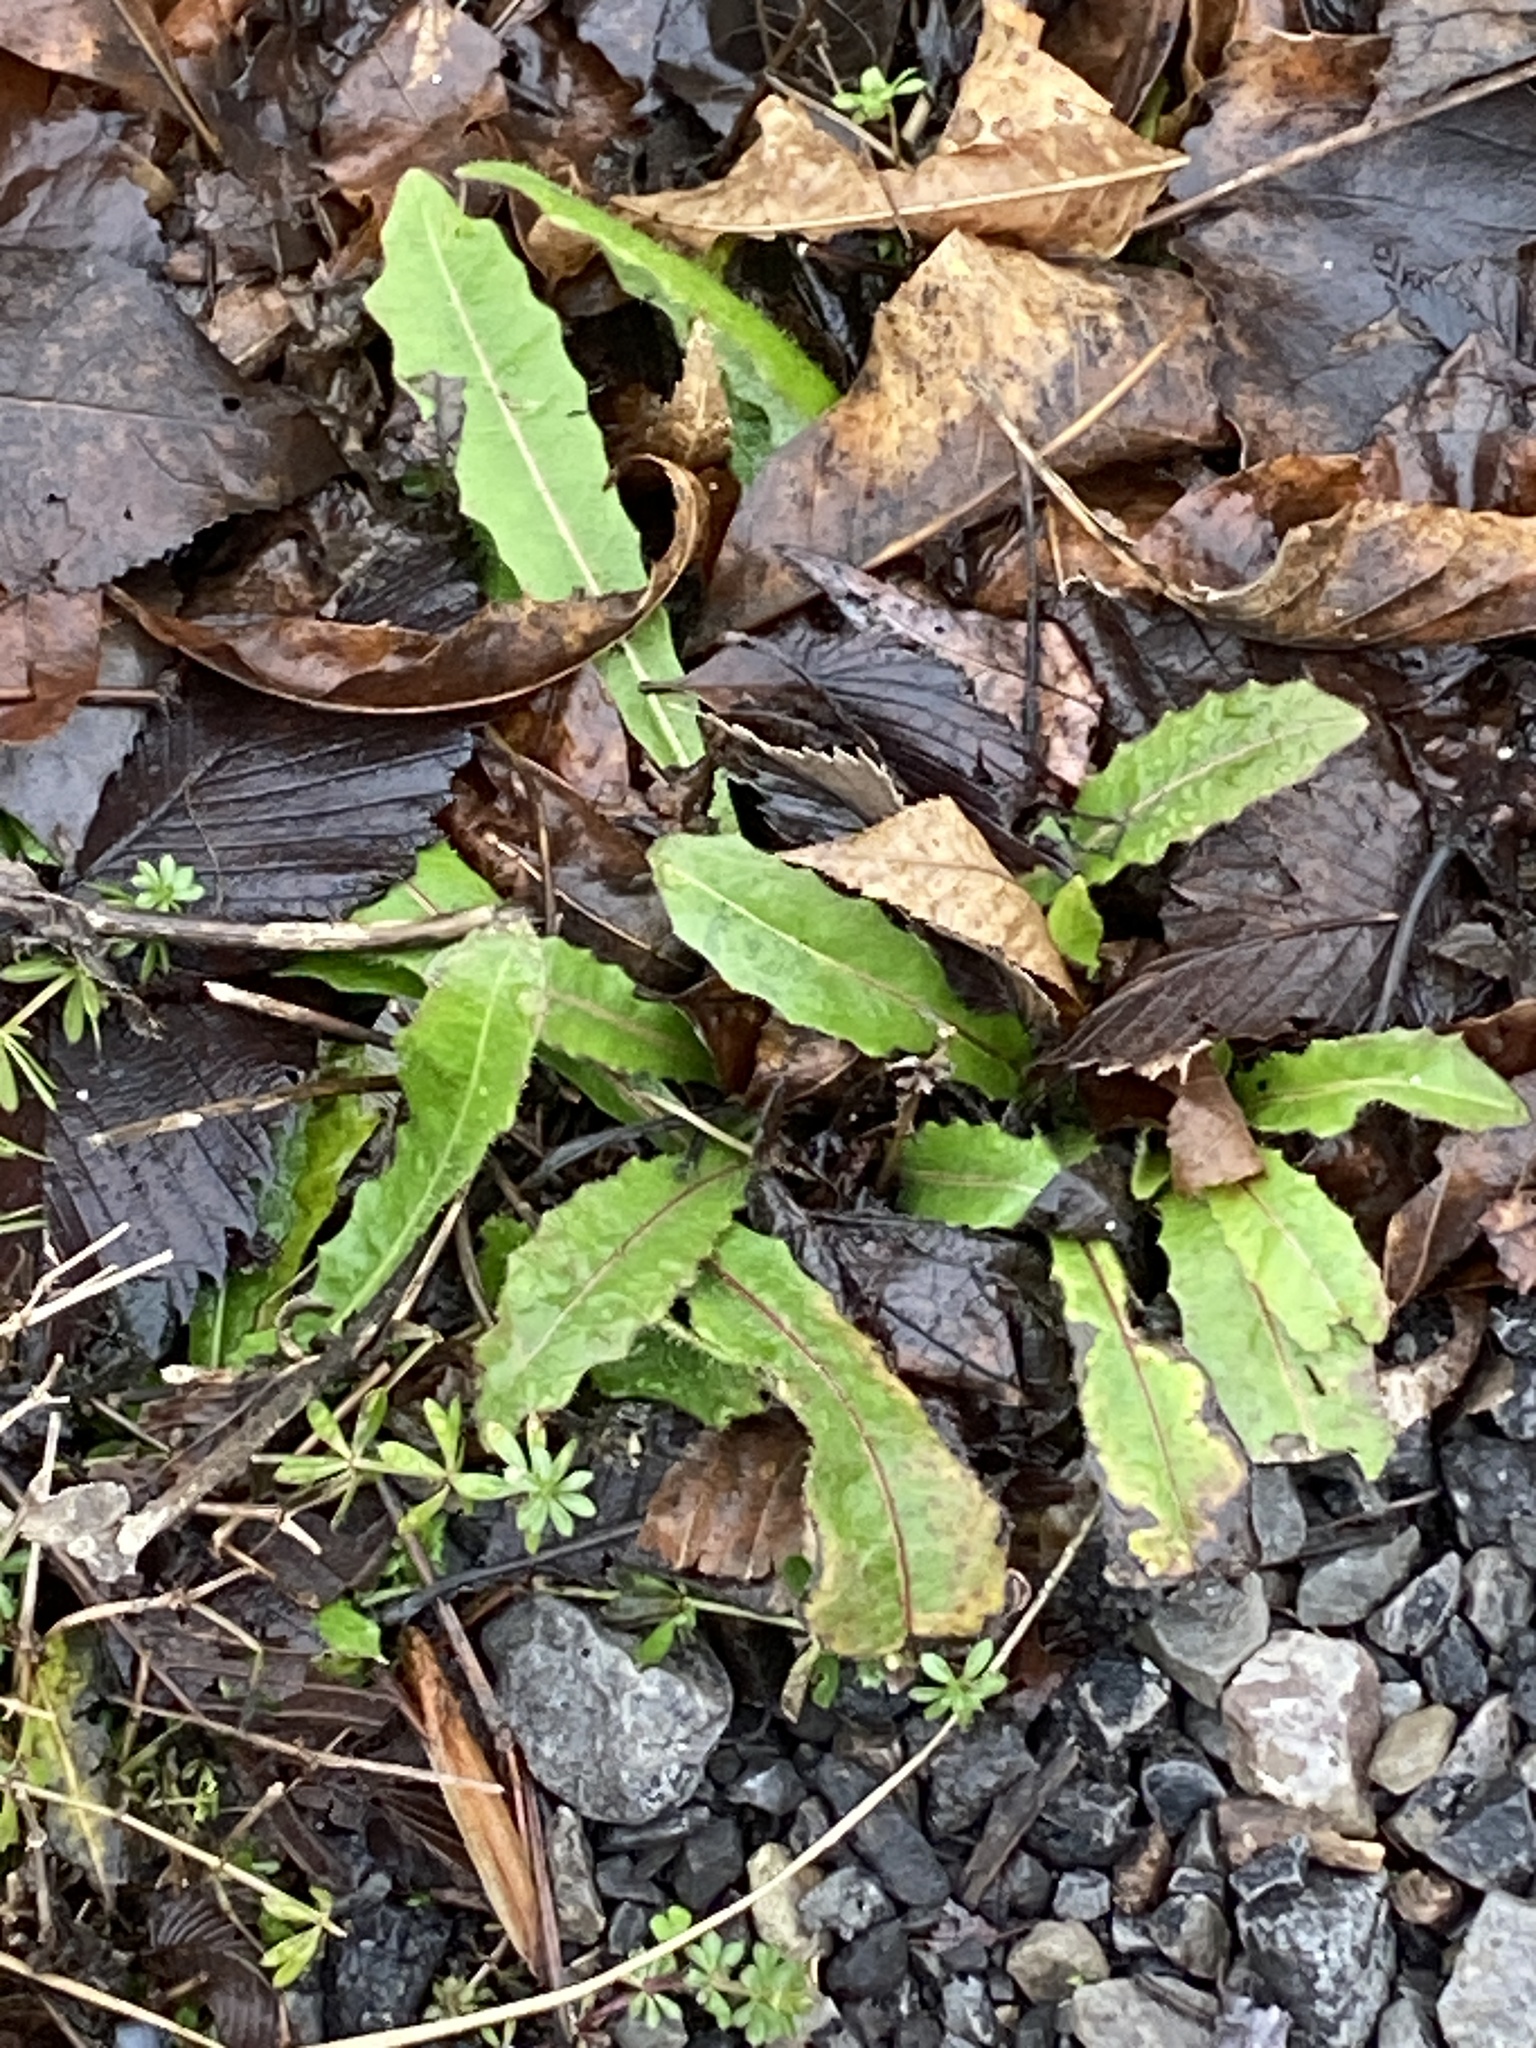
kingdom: Plantae
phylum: Tracheophyta
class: Magnoliopsida
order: Asterales
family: Asteraceae
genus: Picris
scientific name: Picris hieracioides
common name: Hawkweed oxtongue
